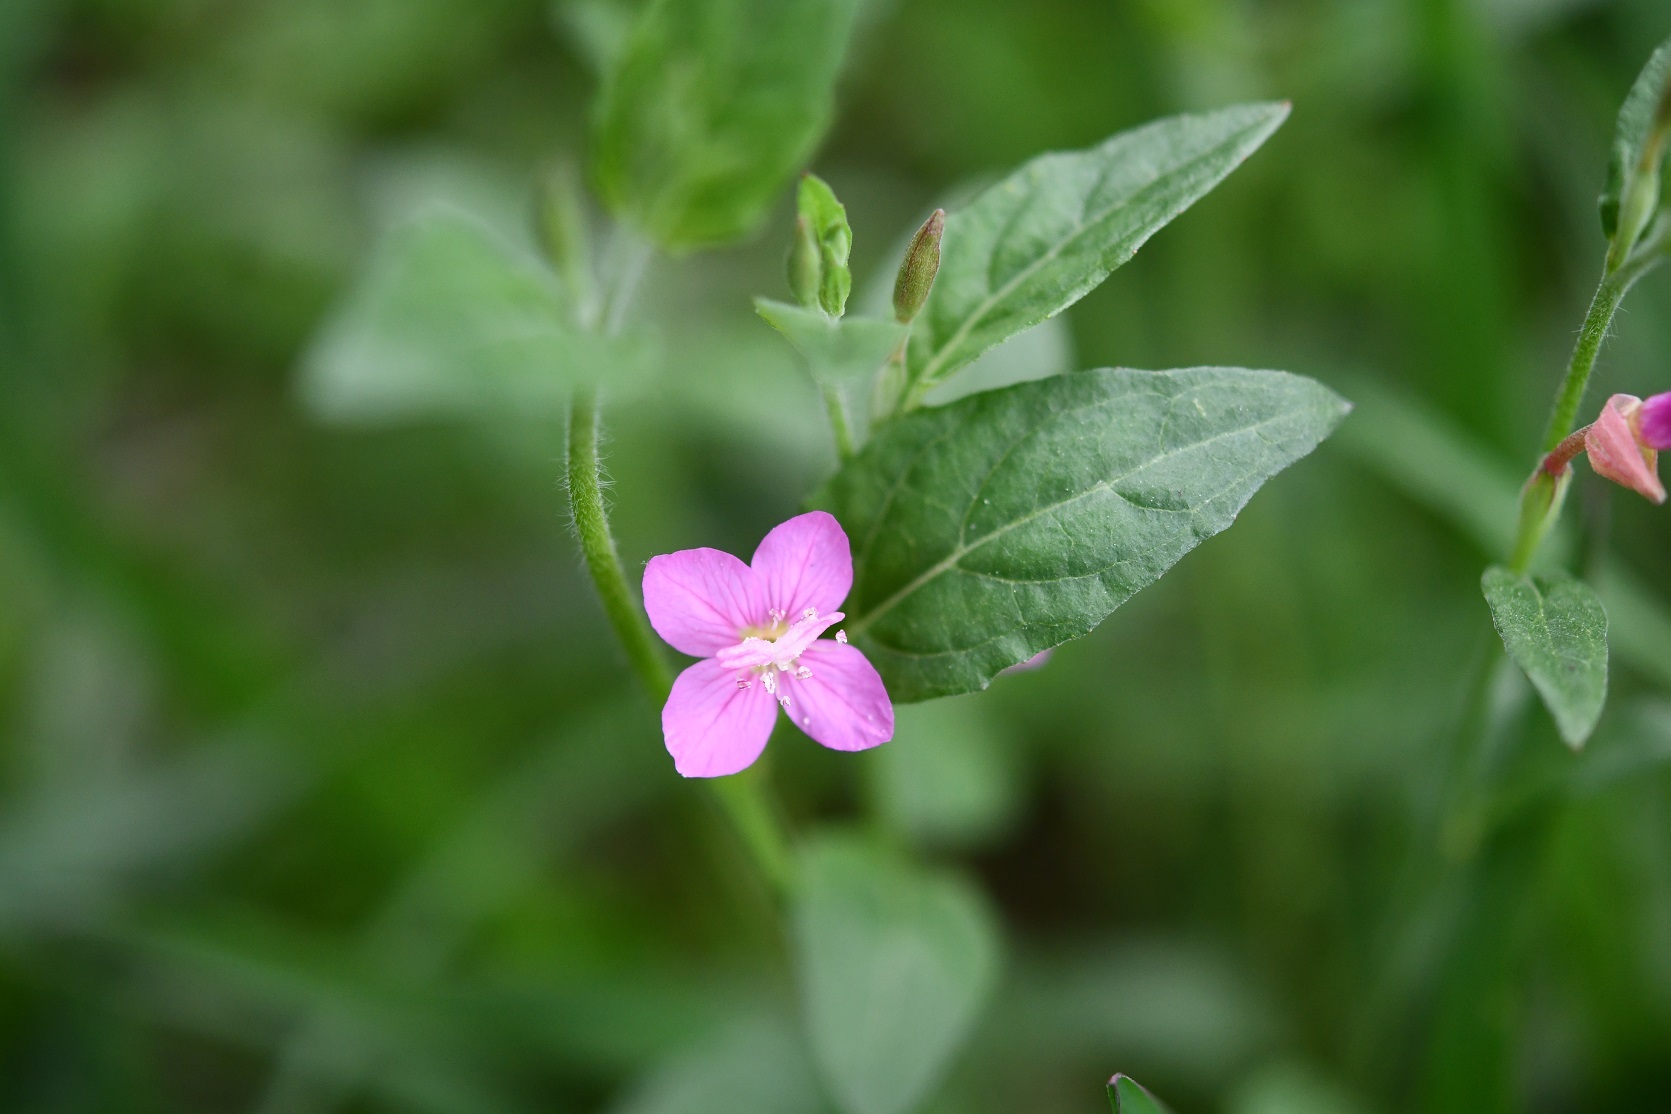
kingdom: Plantae
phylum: Tracheophyta
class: Magnoliopsida
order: Myrtales
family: Onagraceae
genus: Oenothera
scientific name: Oenothera rosea
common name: Rosy evening-primrose
